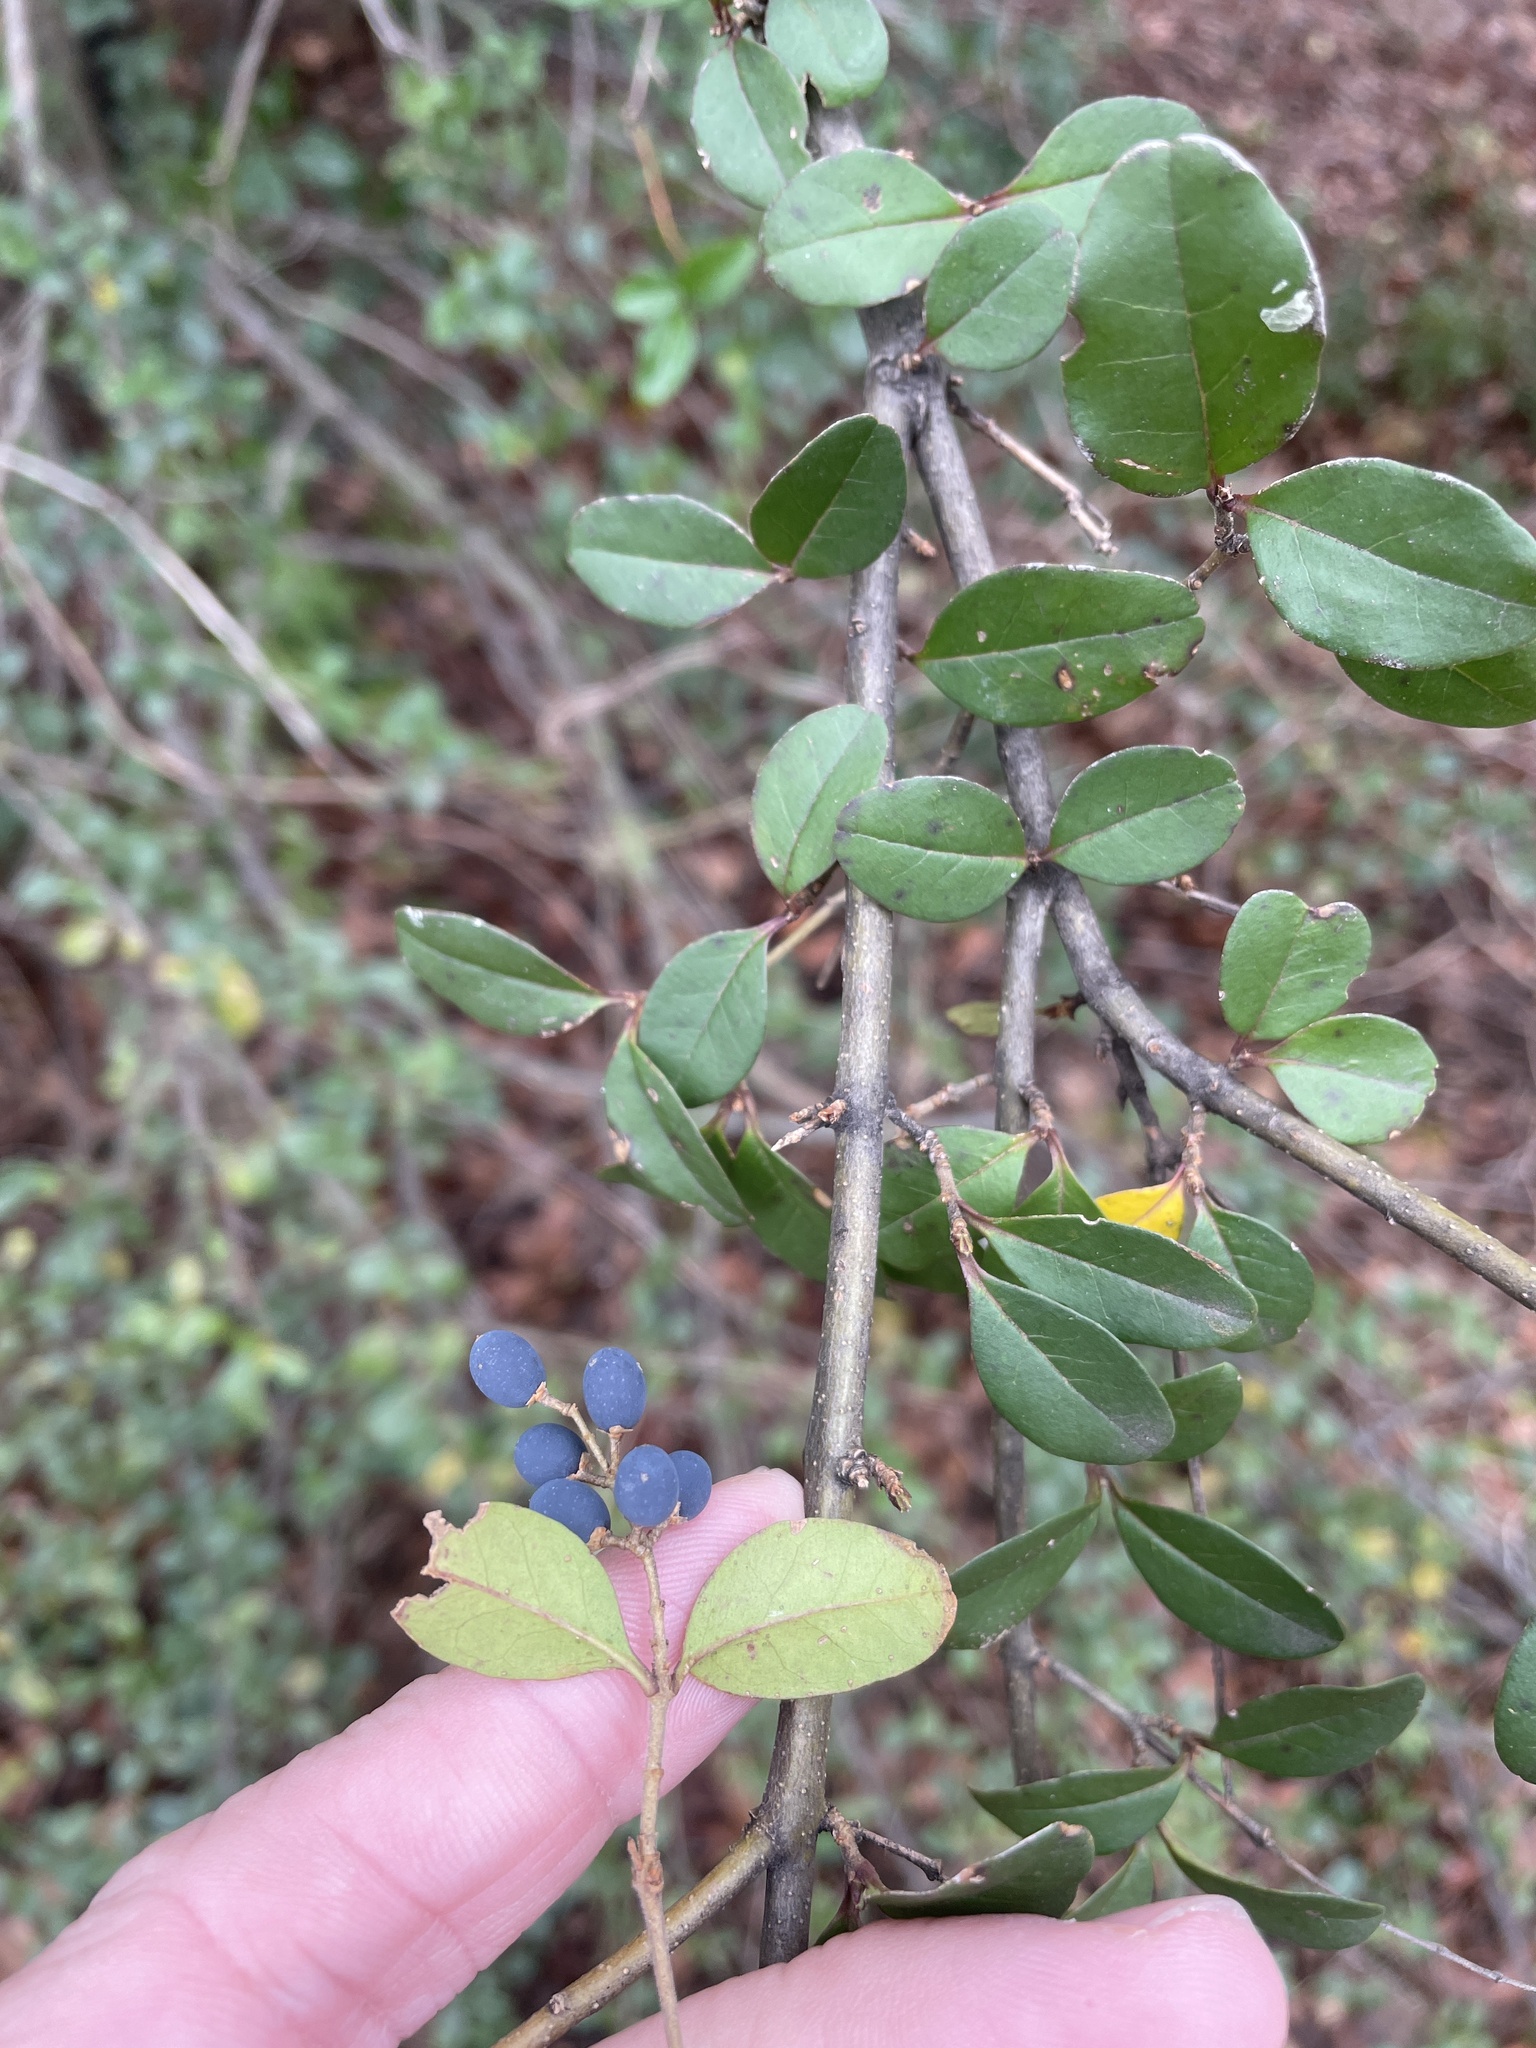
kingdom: Plantae
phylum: Tracheophyta
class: Magnoliopsida
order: Lamiales
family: Oleaceae
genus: Ligustrum
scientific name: Ligustrum sinense
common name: Chinese privet
